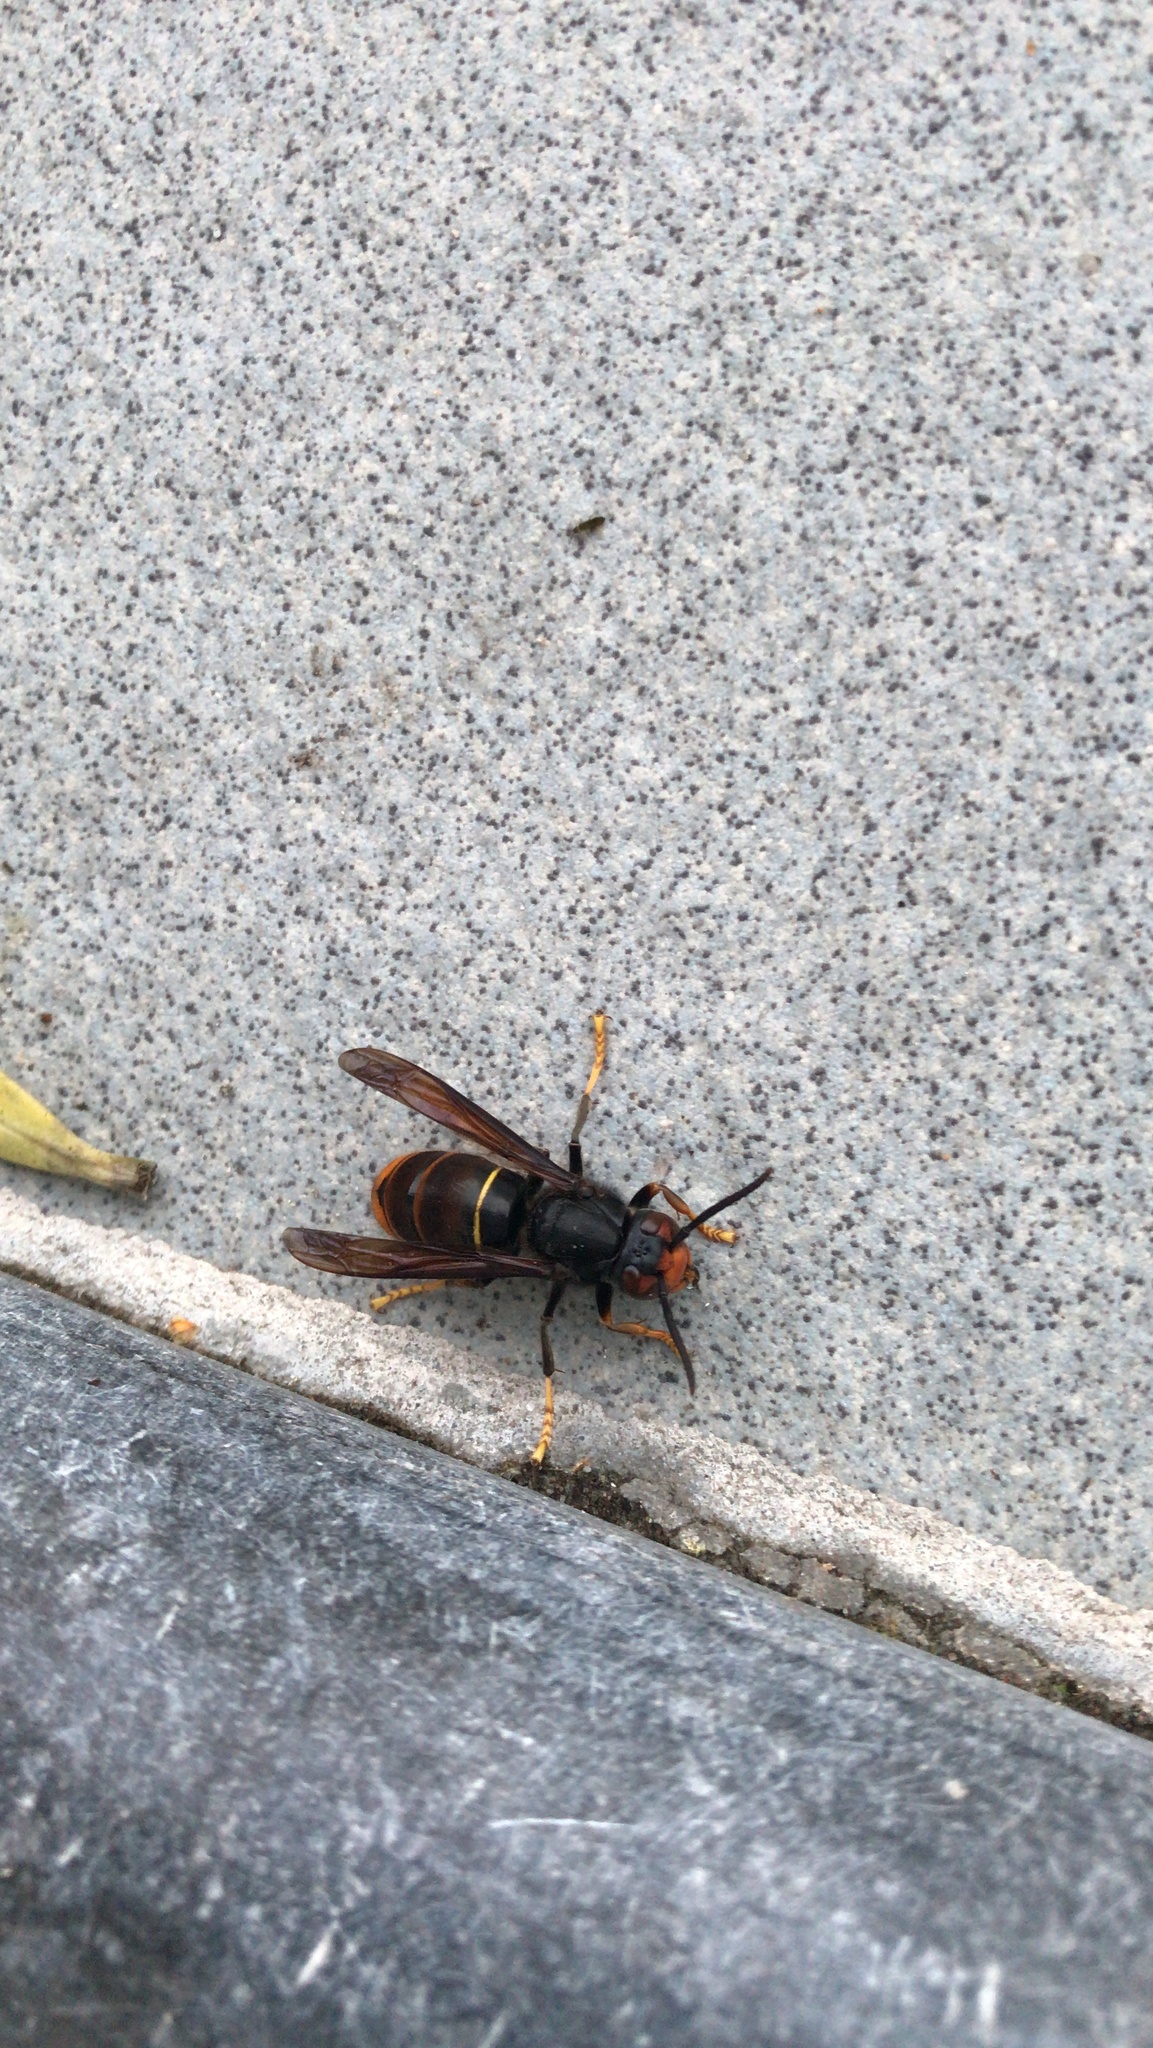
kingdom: Animalia
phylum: Arthropoda
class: Insecta
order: Hymenoptera
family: Vespidae
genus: Vespa
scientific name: Vespa velutina
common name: Asian hornet
